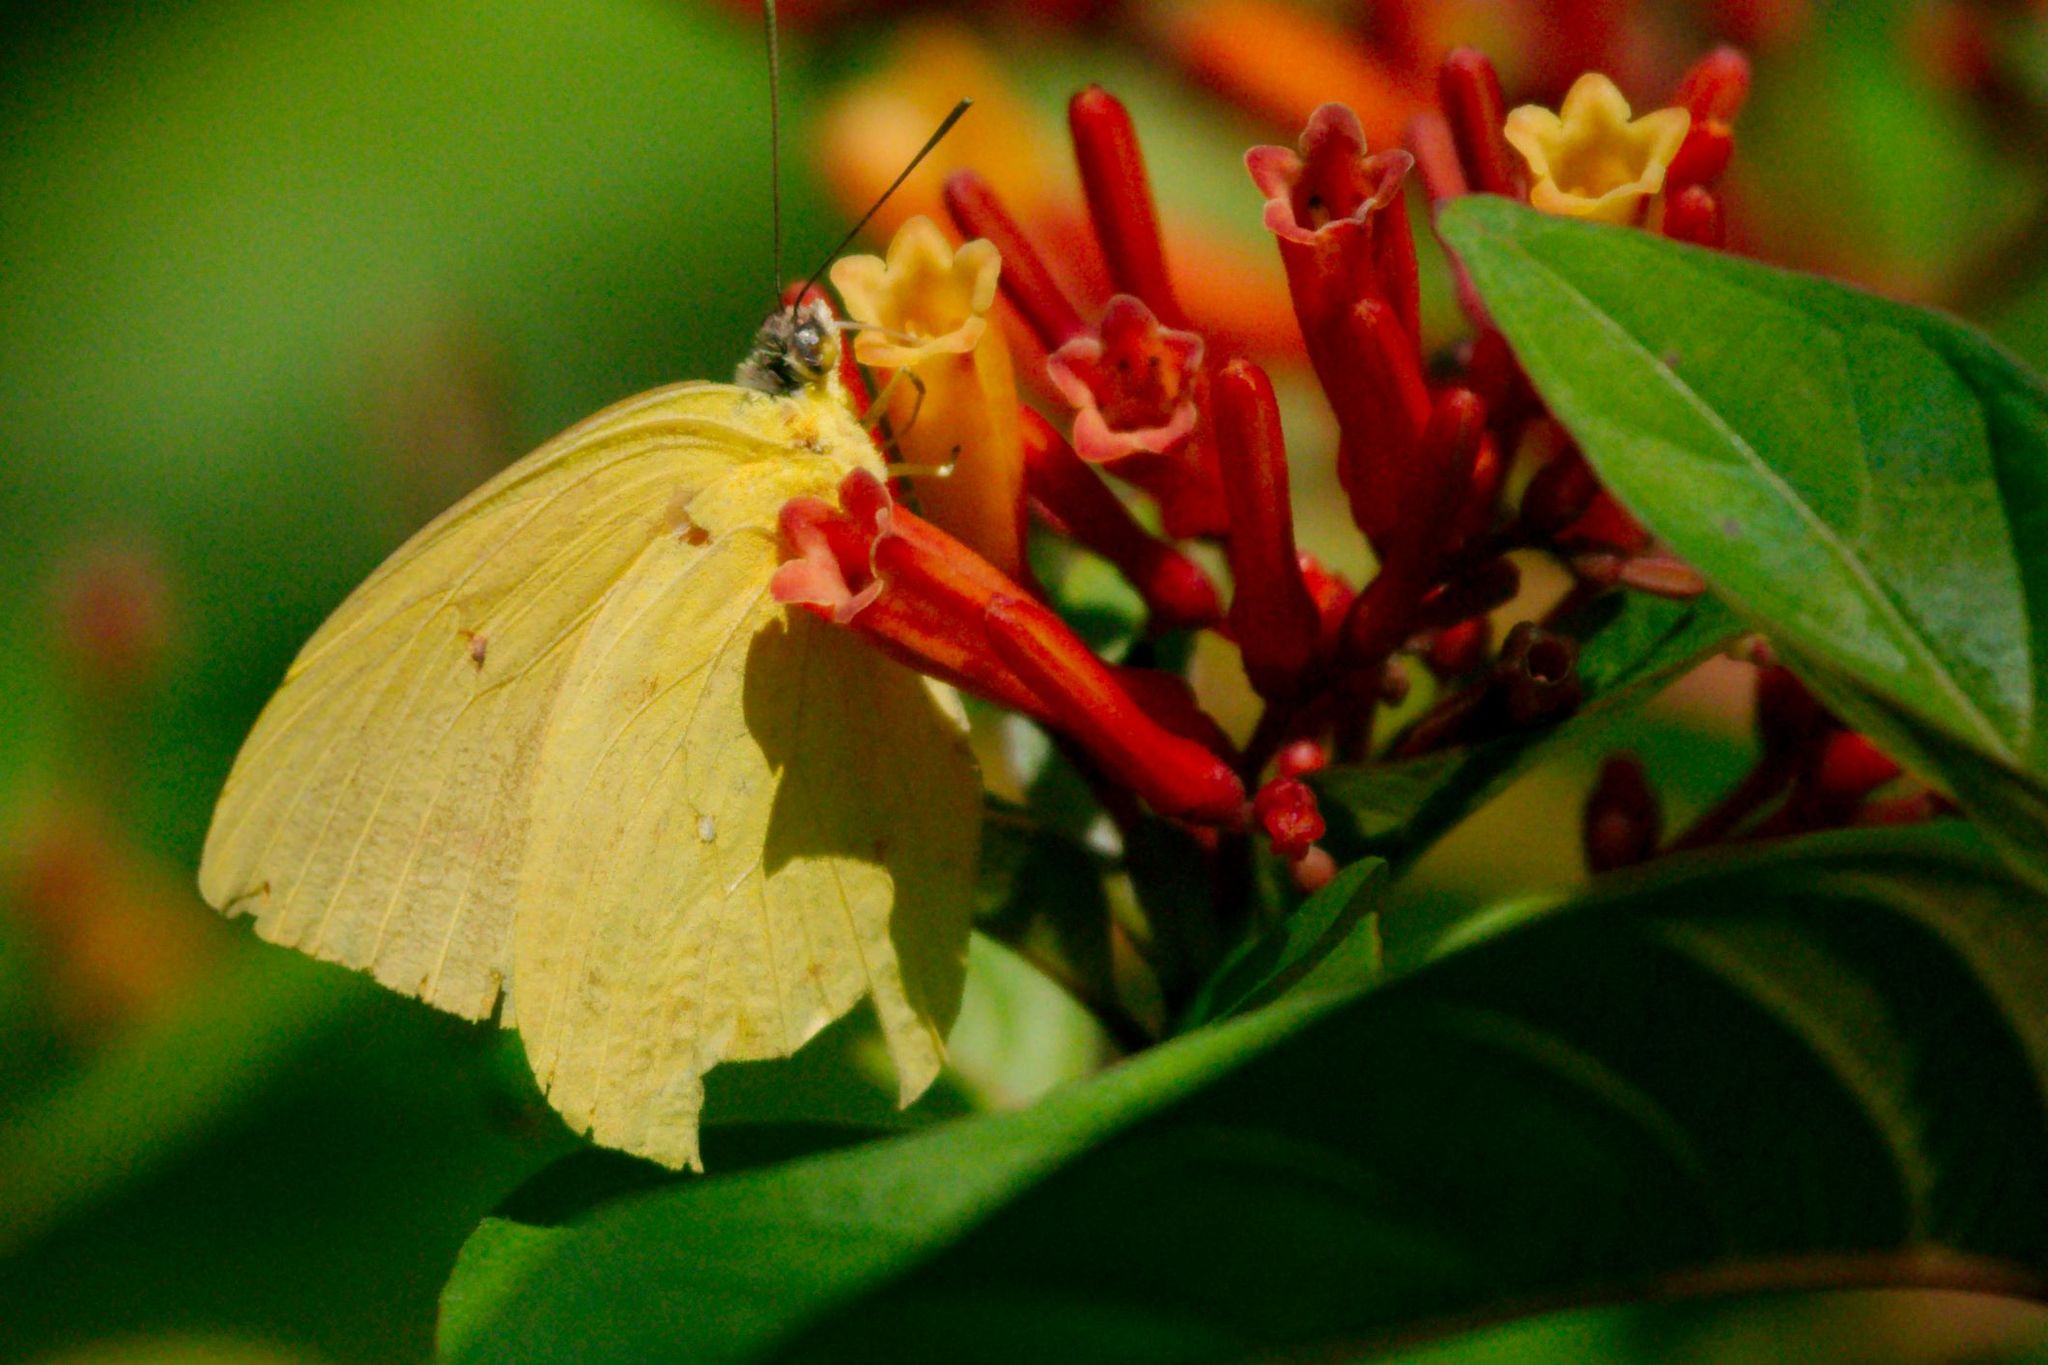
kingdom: Animalia
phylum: Arthropoda
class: Insecta
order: Lepidoptera
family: Pieridae
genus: Phoebis
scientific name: Phoebis sennae
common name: Cloudless sulphur
